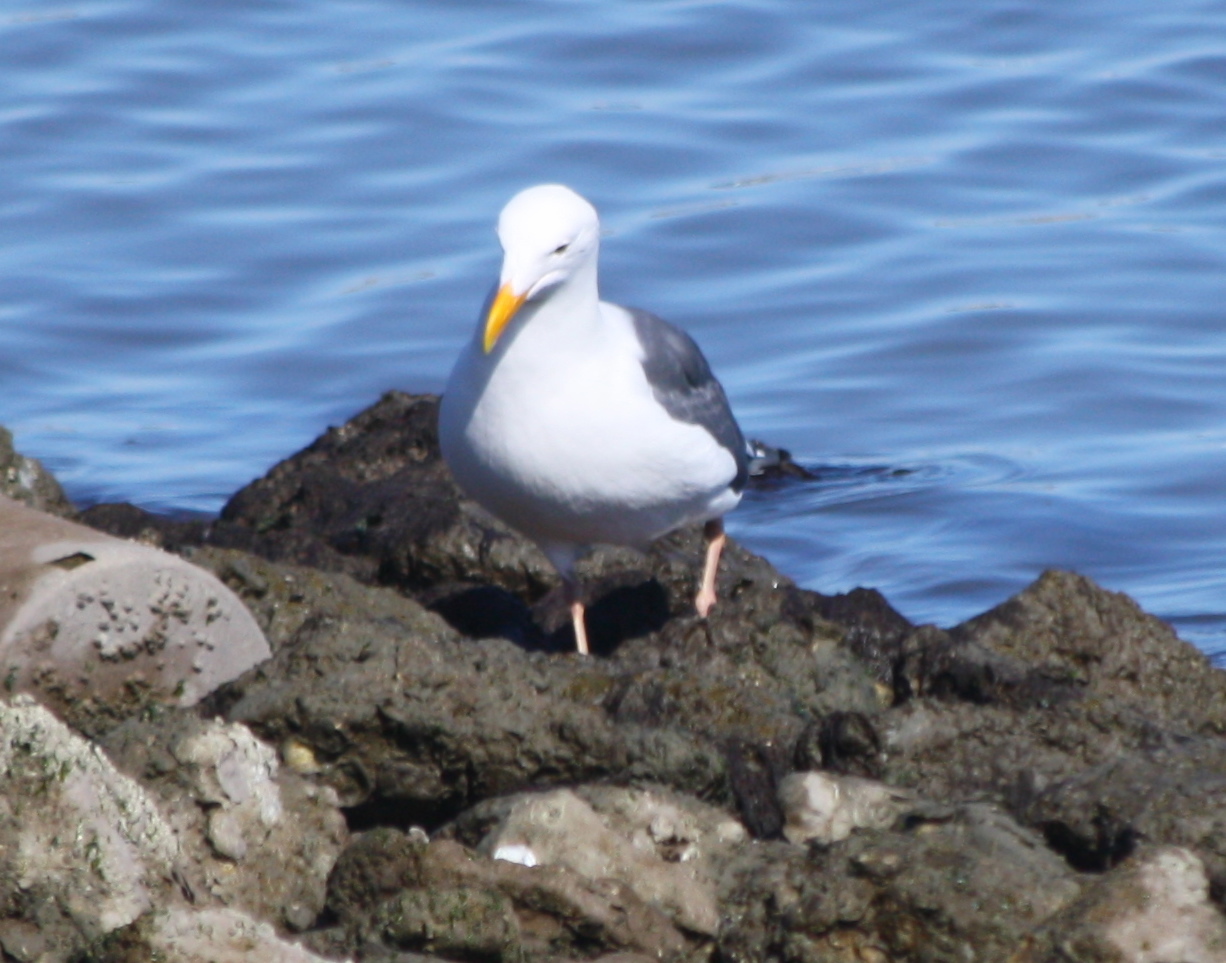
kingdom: Animalia
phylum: Chordata
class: Aves
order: Charadriiformes
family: Laridae
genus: Larus
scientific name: Larus occidentalis
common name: Western gull
